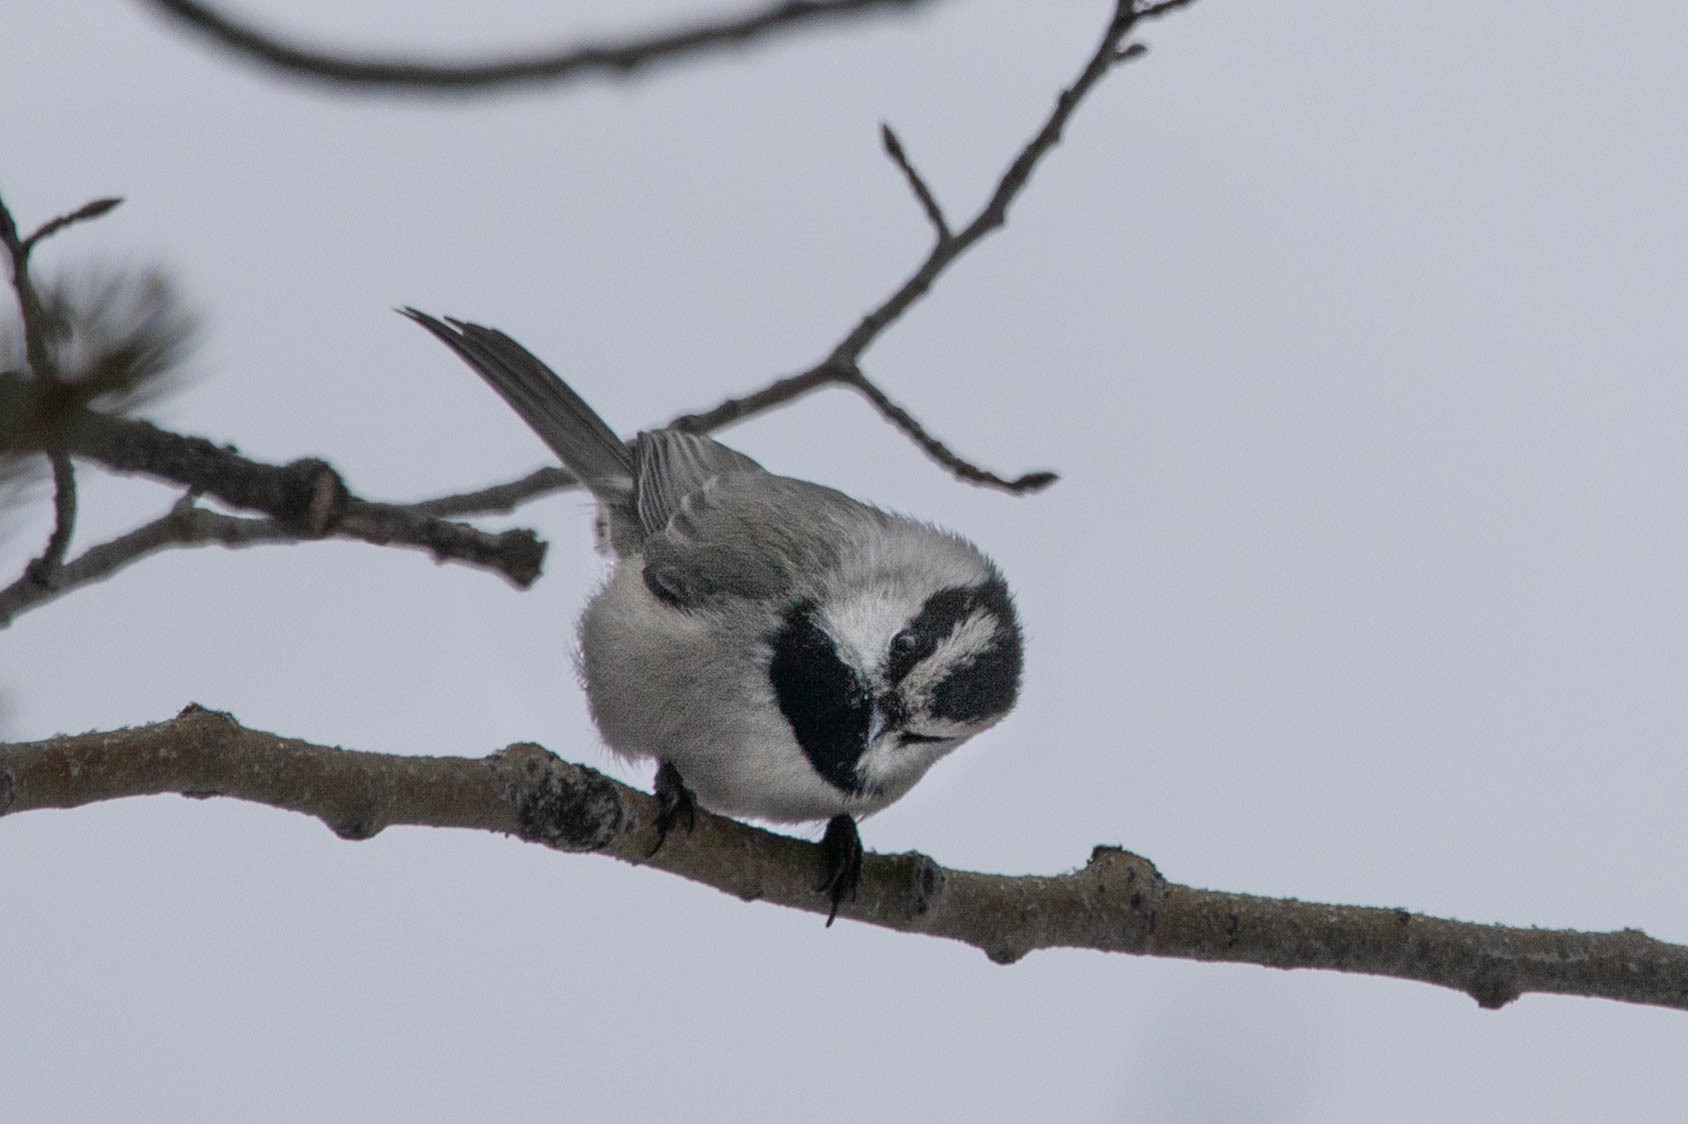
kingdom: Animalia
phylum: Chordata
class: Aves
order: Passeriformes
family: Paridae
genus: Poecile
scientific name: Poecile gambeli
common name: Mountain chickadee
